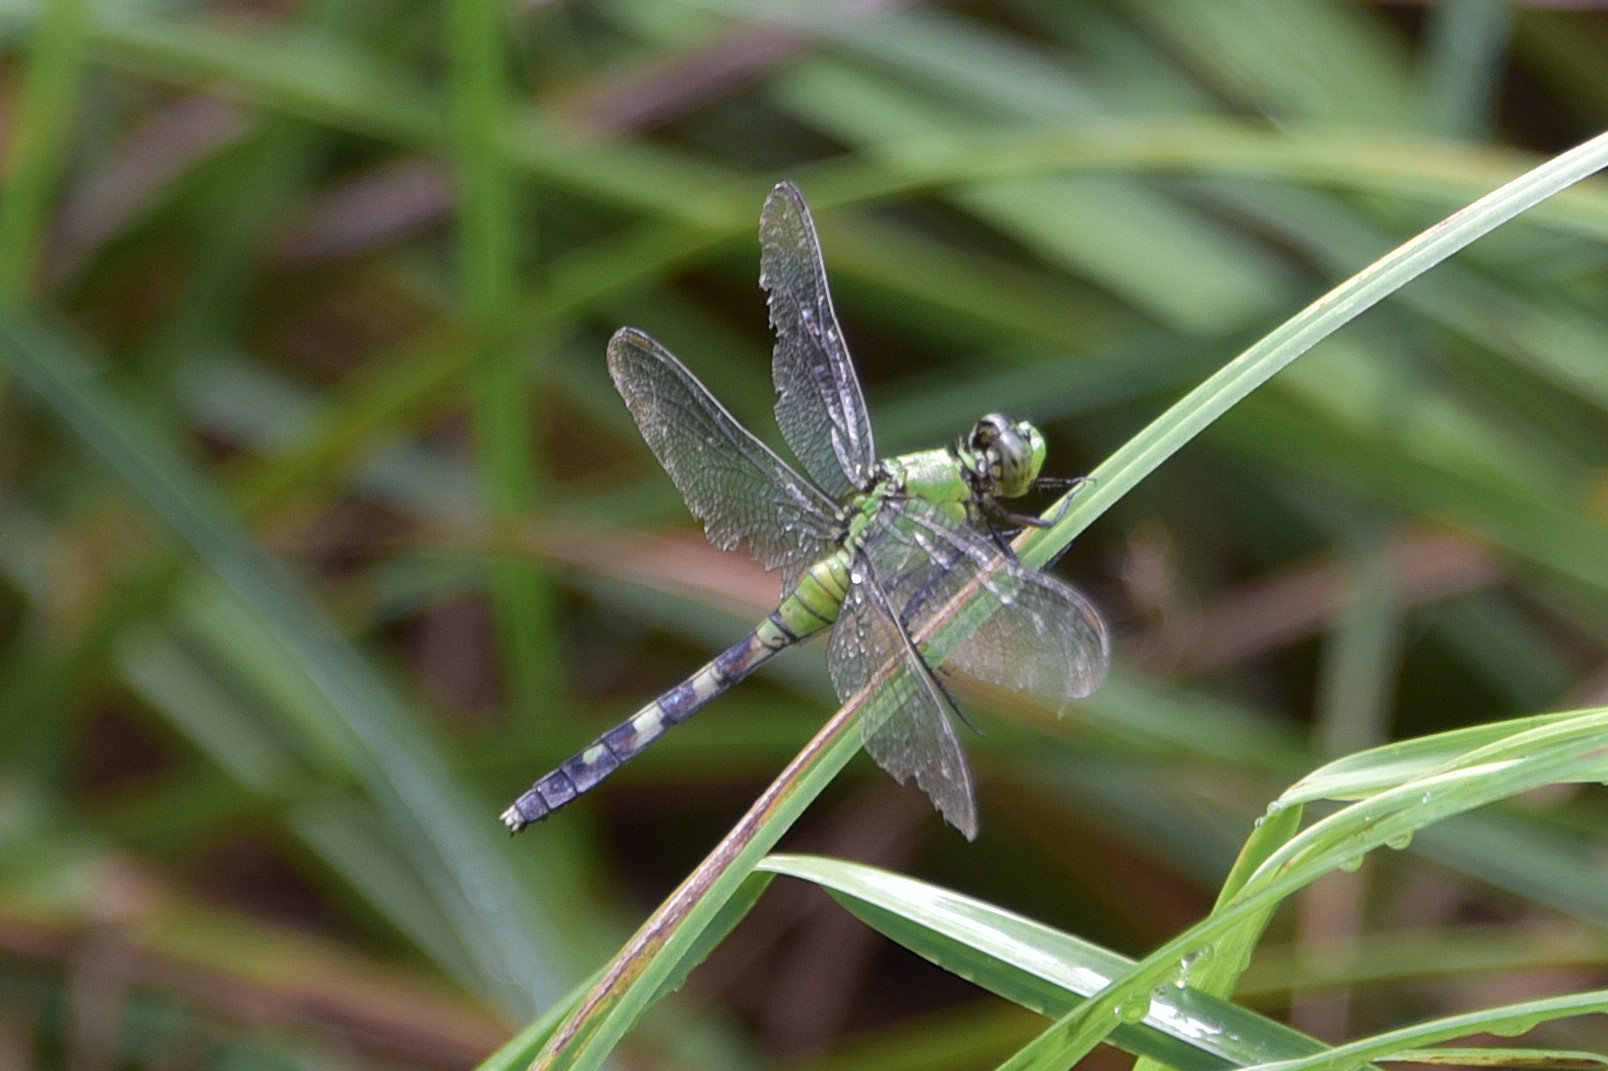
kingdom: Animalia
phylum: Arthropoda
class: Insecta
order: Odonata
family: Libellulidae
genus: Erythemis
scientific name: Erythemis simplicicollis
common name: Eastern pondhawk
